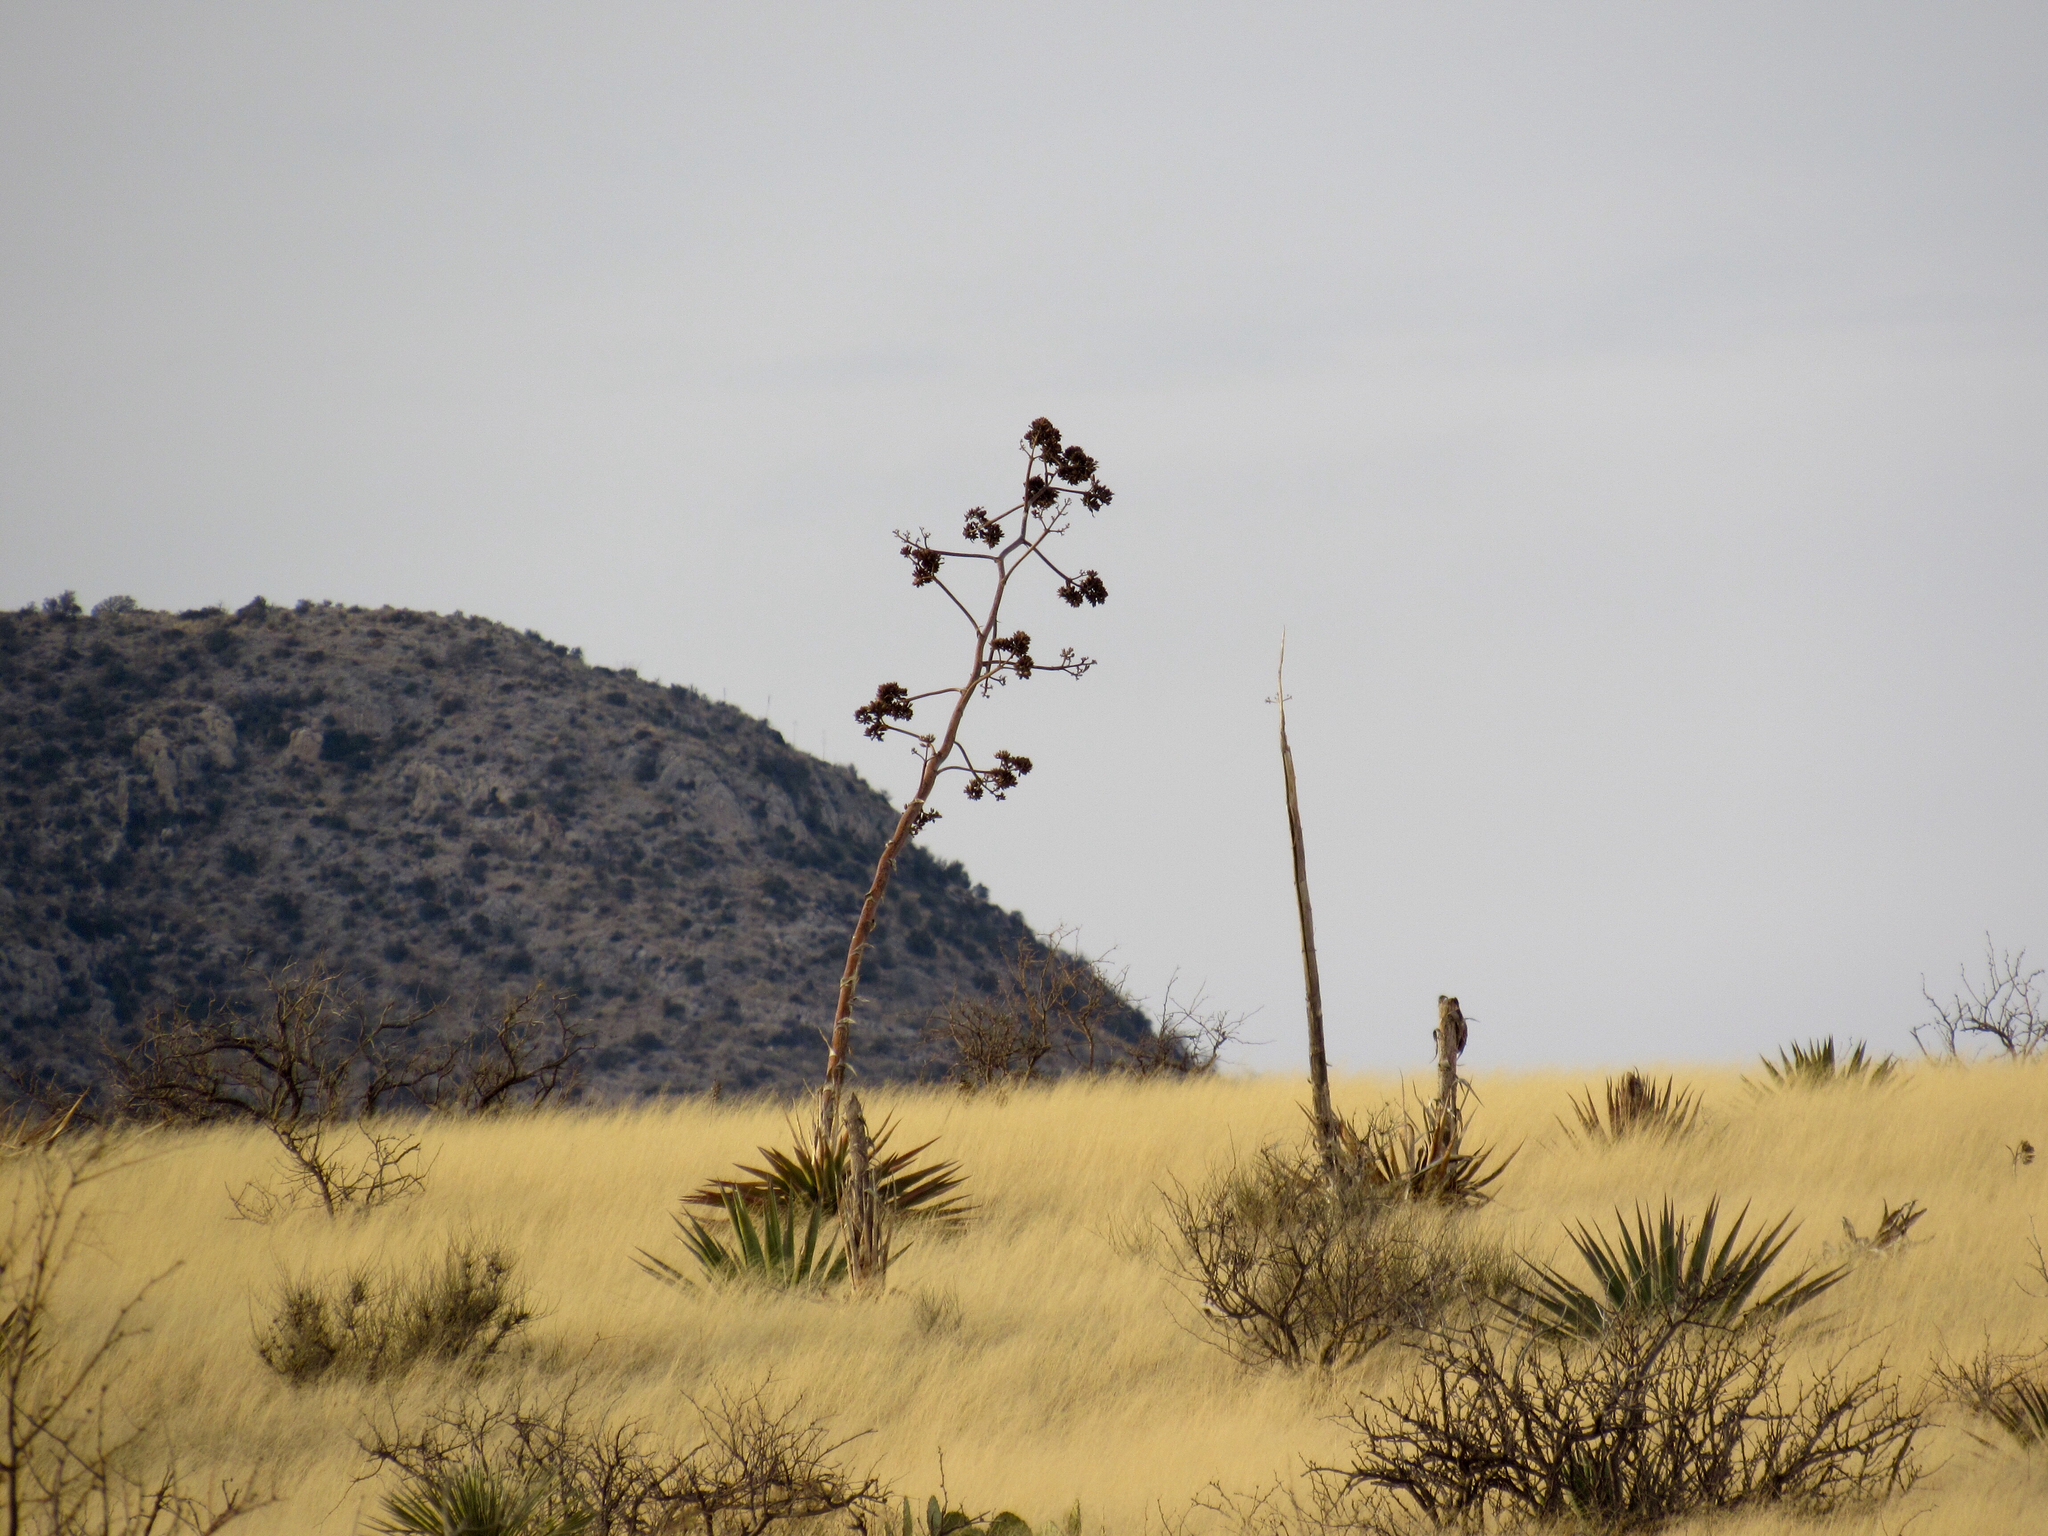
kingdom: Plantae
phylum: Tracheophyta
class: Liliopsida
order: Asparagales
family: Asparagaceae
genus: Agave
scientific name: Agave palmeri
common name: Palmer agave
